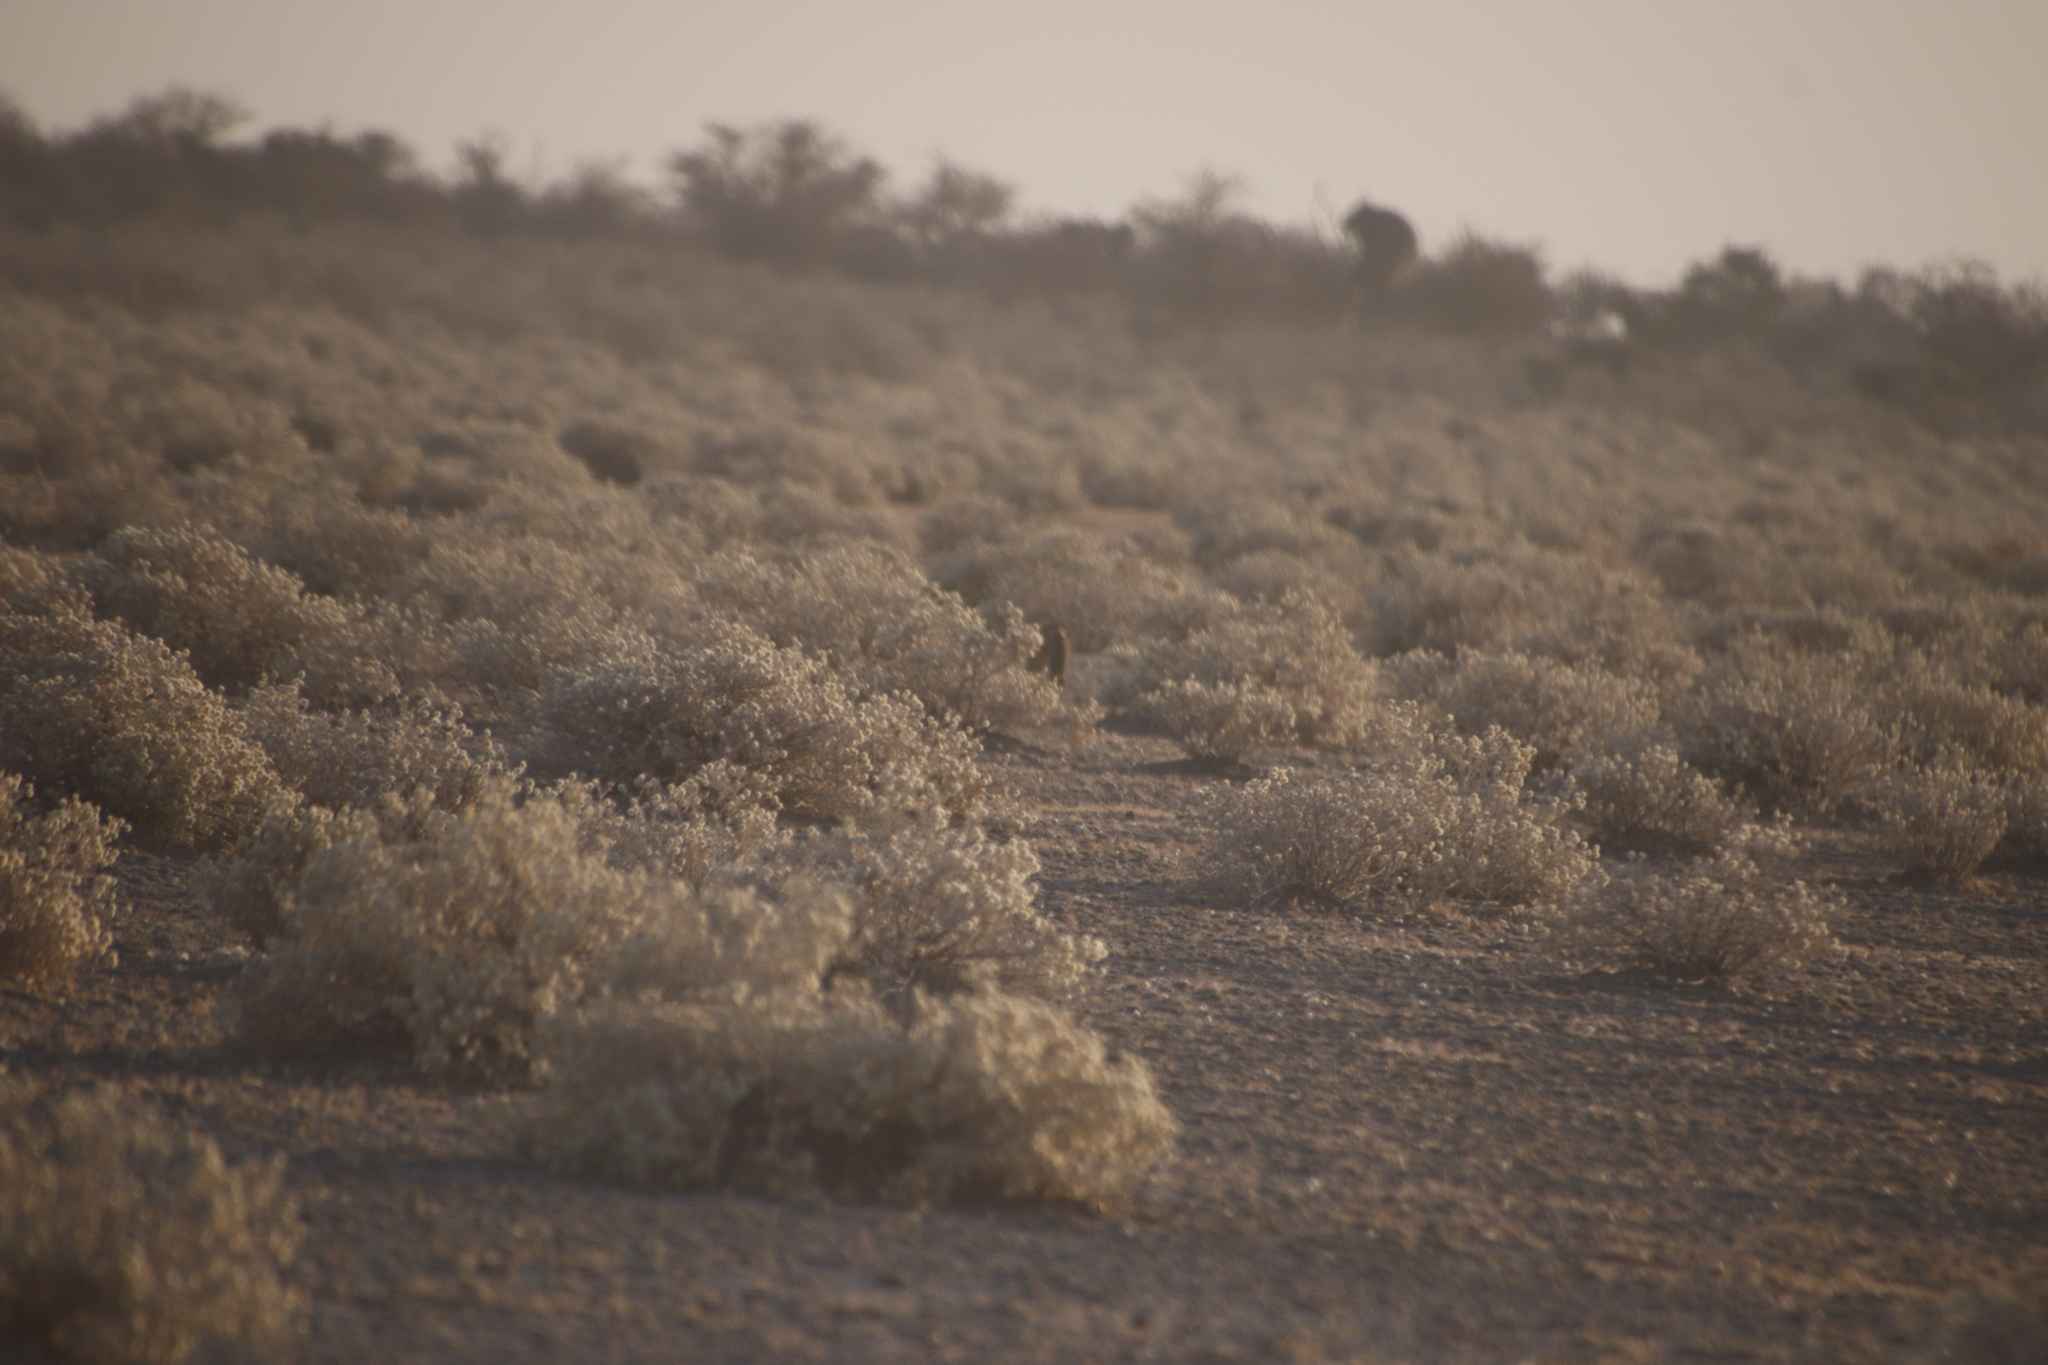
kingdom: Animalia
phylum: Chordata
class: Mammalia
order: Carnivora
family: Felidae
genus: Felis
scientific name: Felis silvestris
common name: Wildcat
